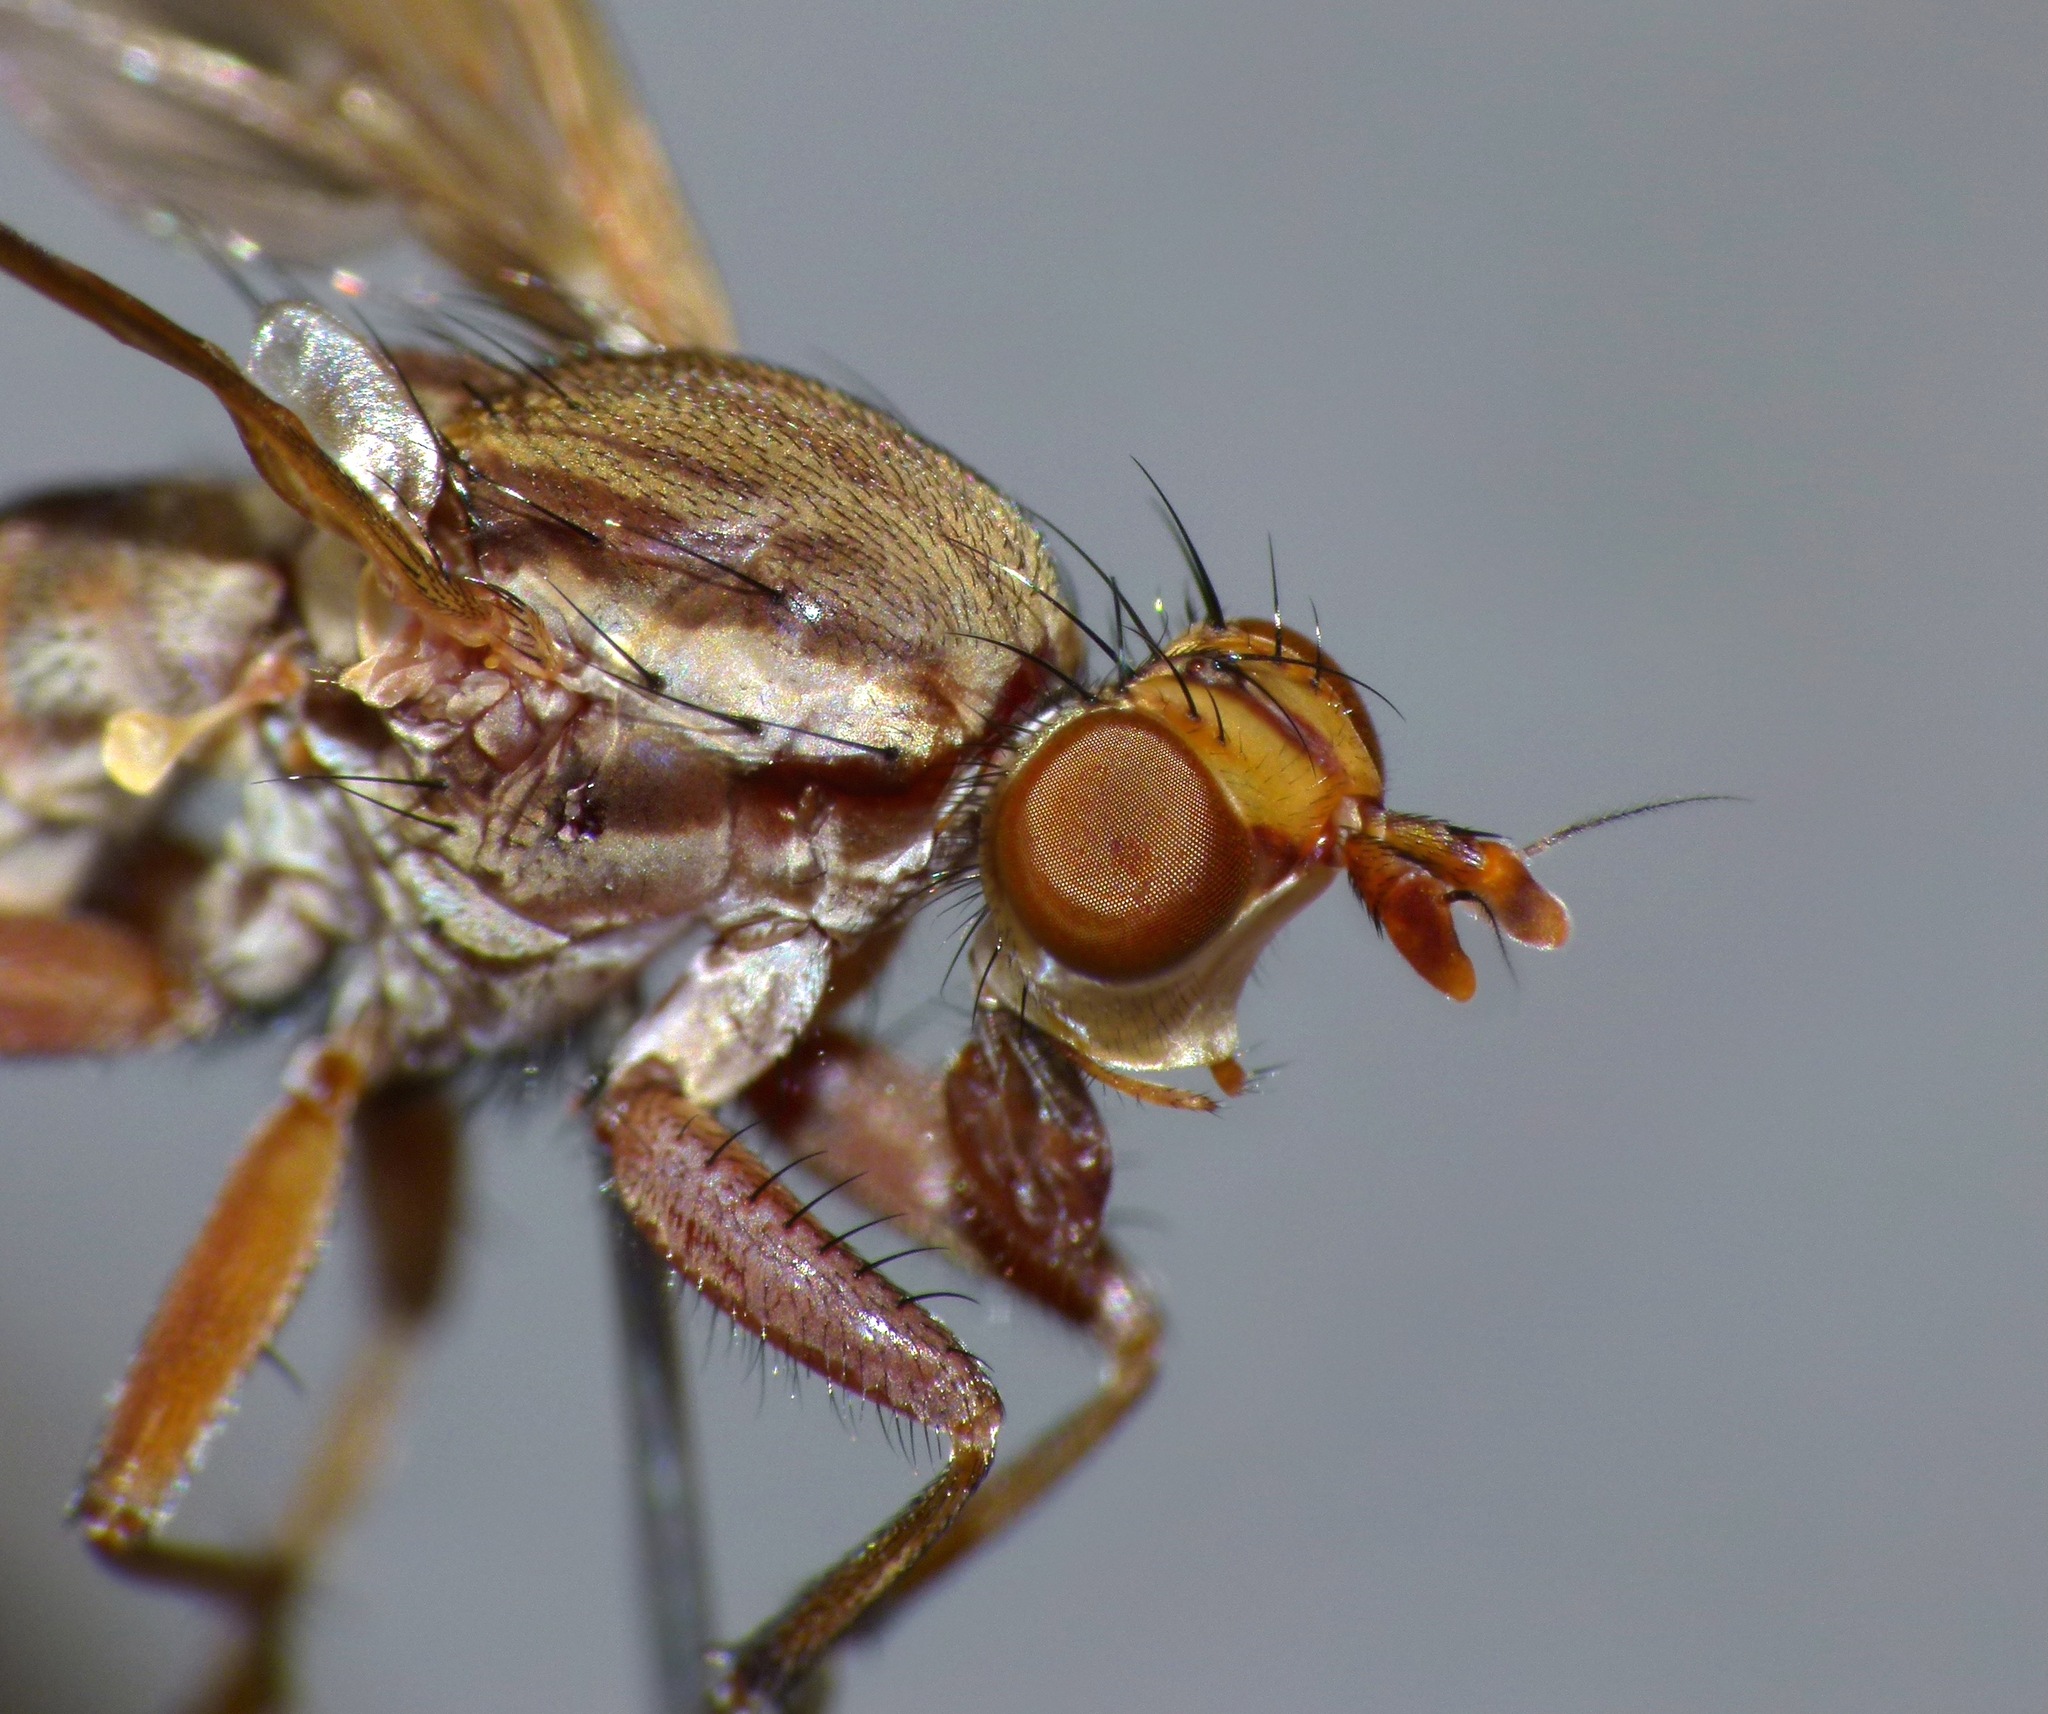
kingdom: Animalia
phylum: Arthropoda
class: Insecta
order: Diptera
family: Sciomyzidae
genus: Neolimnia
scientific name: Neolimnia sigma
